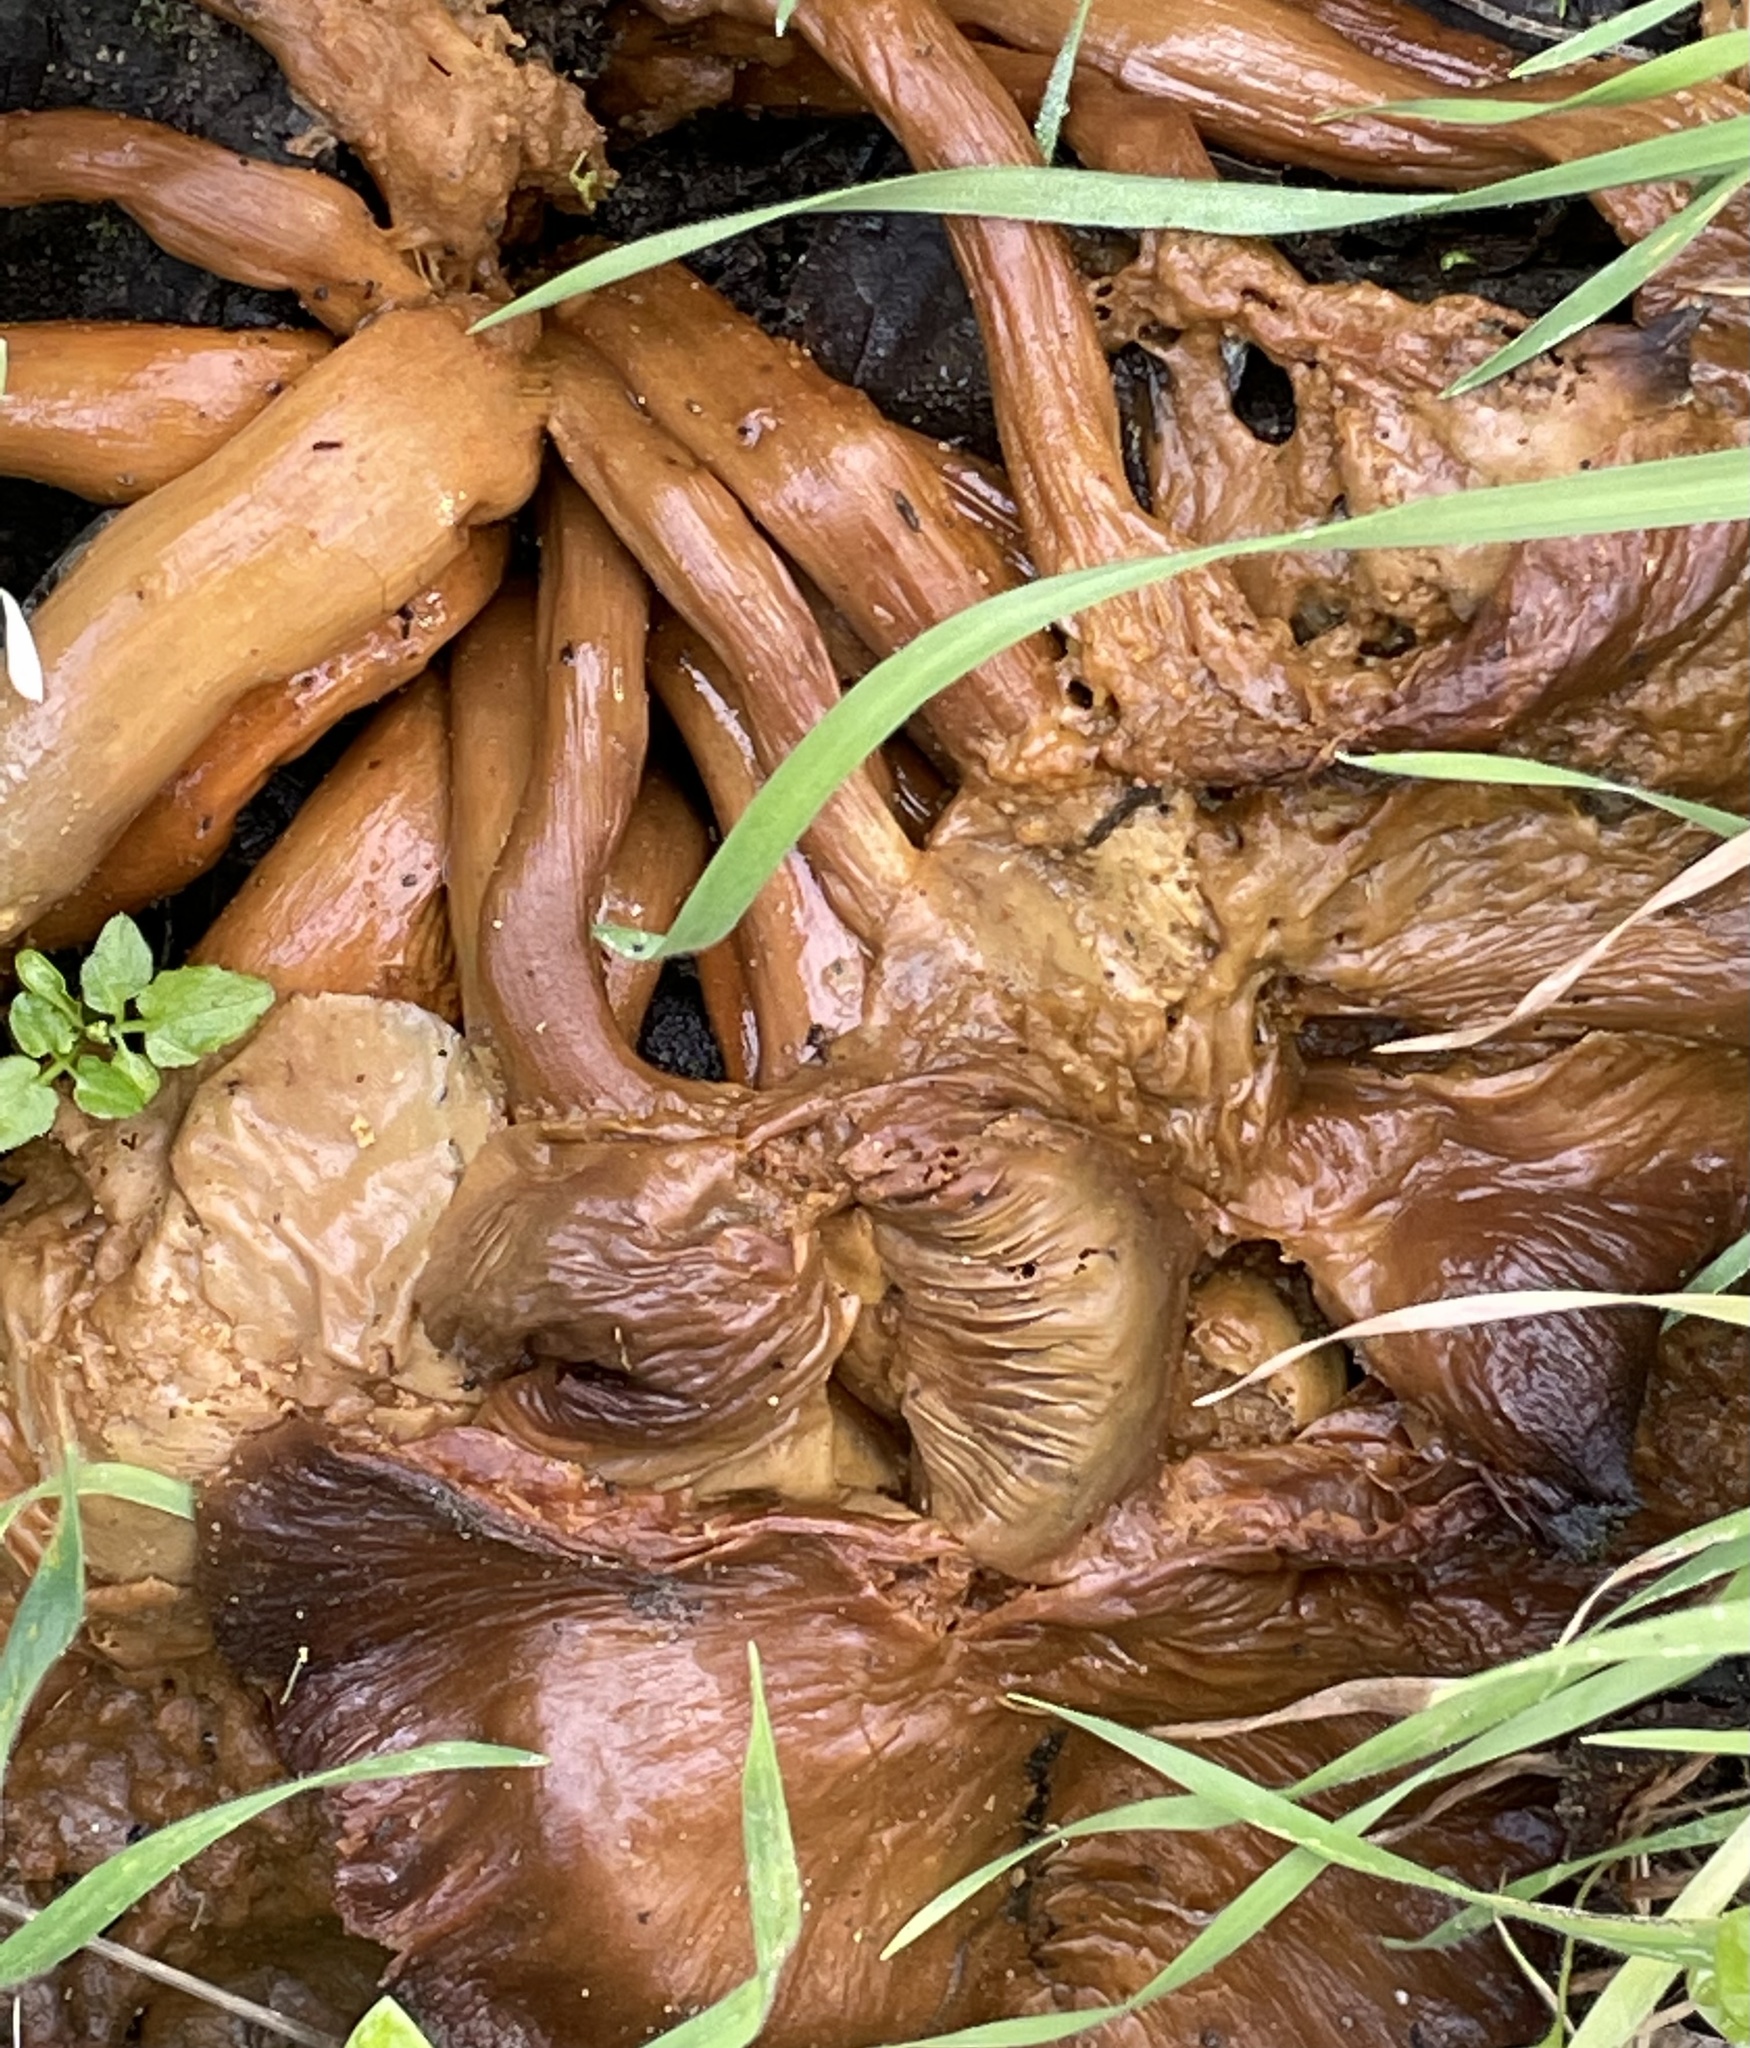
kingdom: Fungi
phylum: Basidiomycota
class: Agaricomycetes
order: Agaricales
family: Omphalotaceae
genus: Omphalotus
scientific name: Omphalotus olivascens
